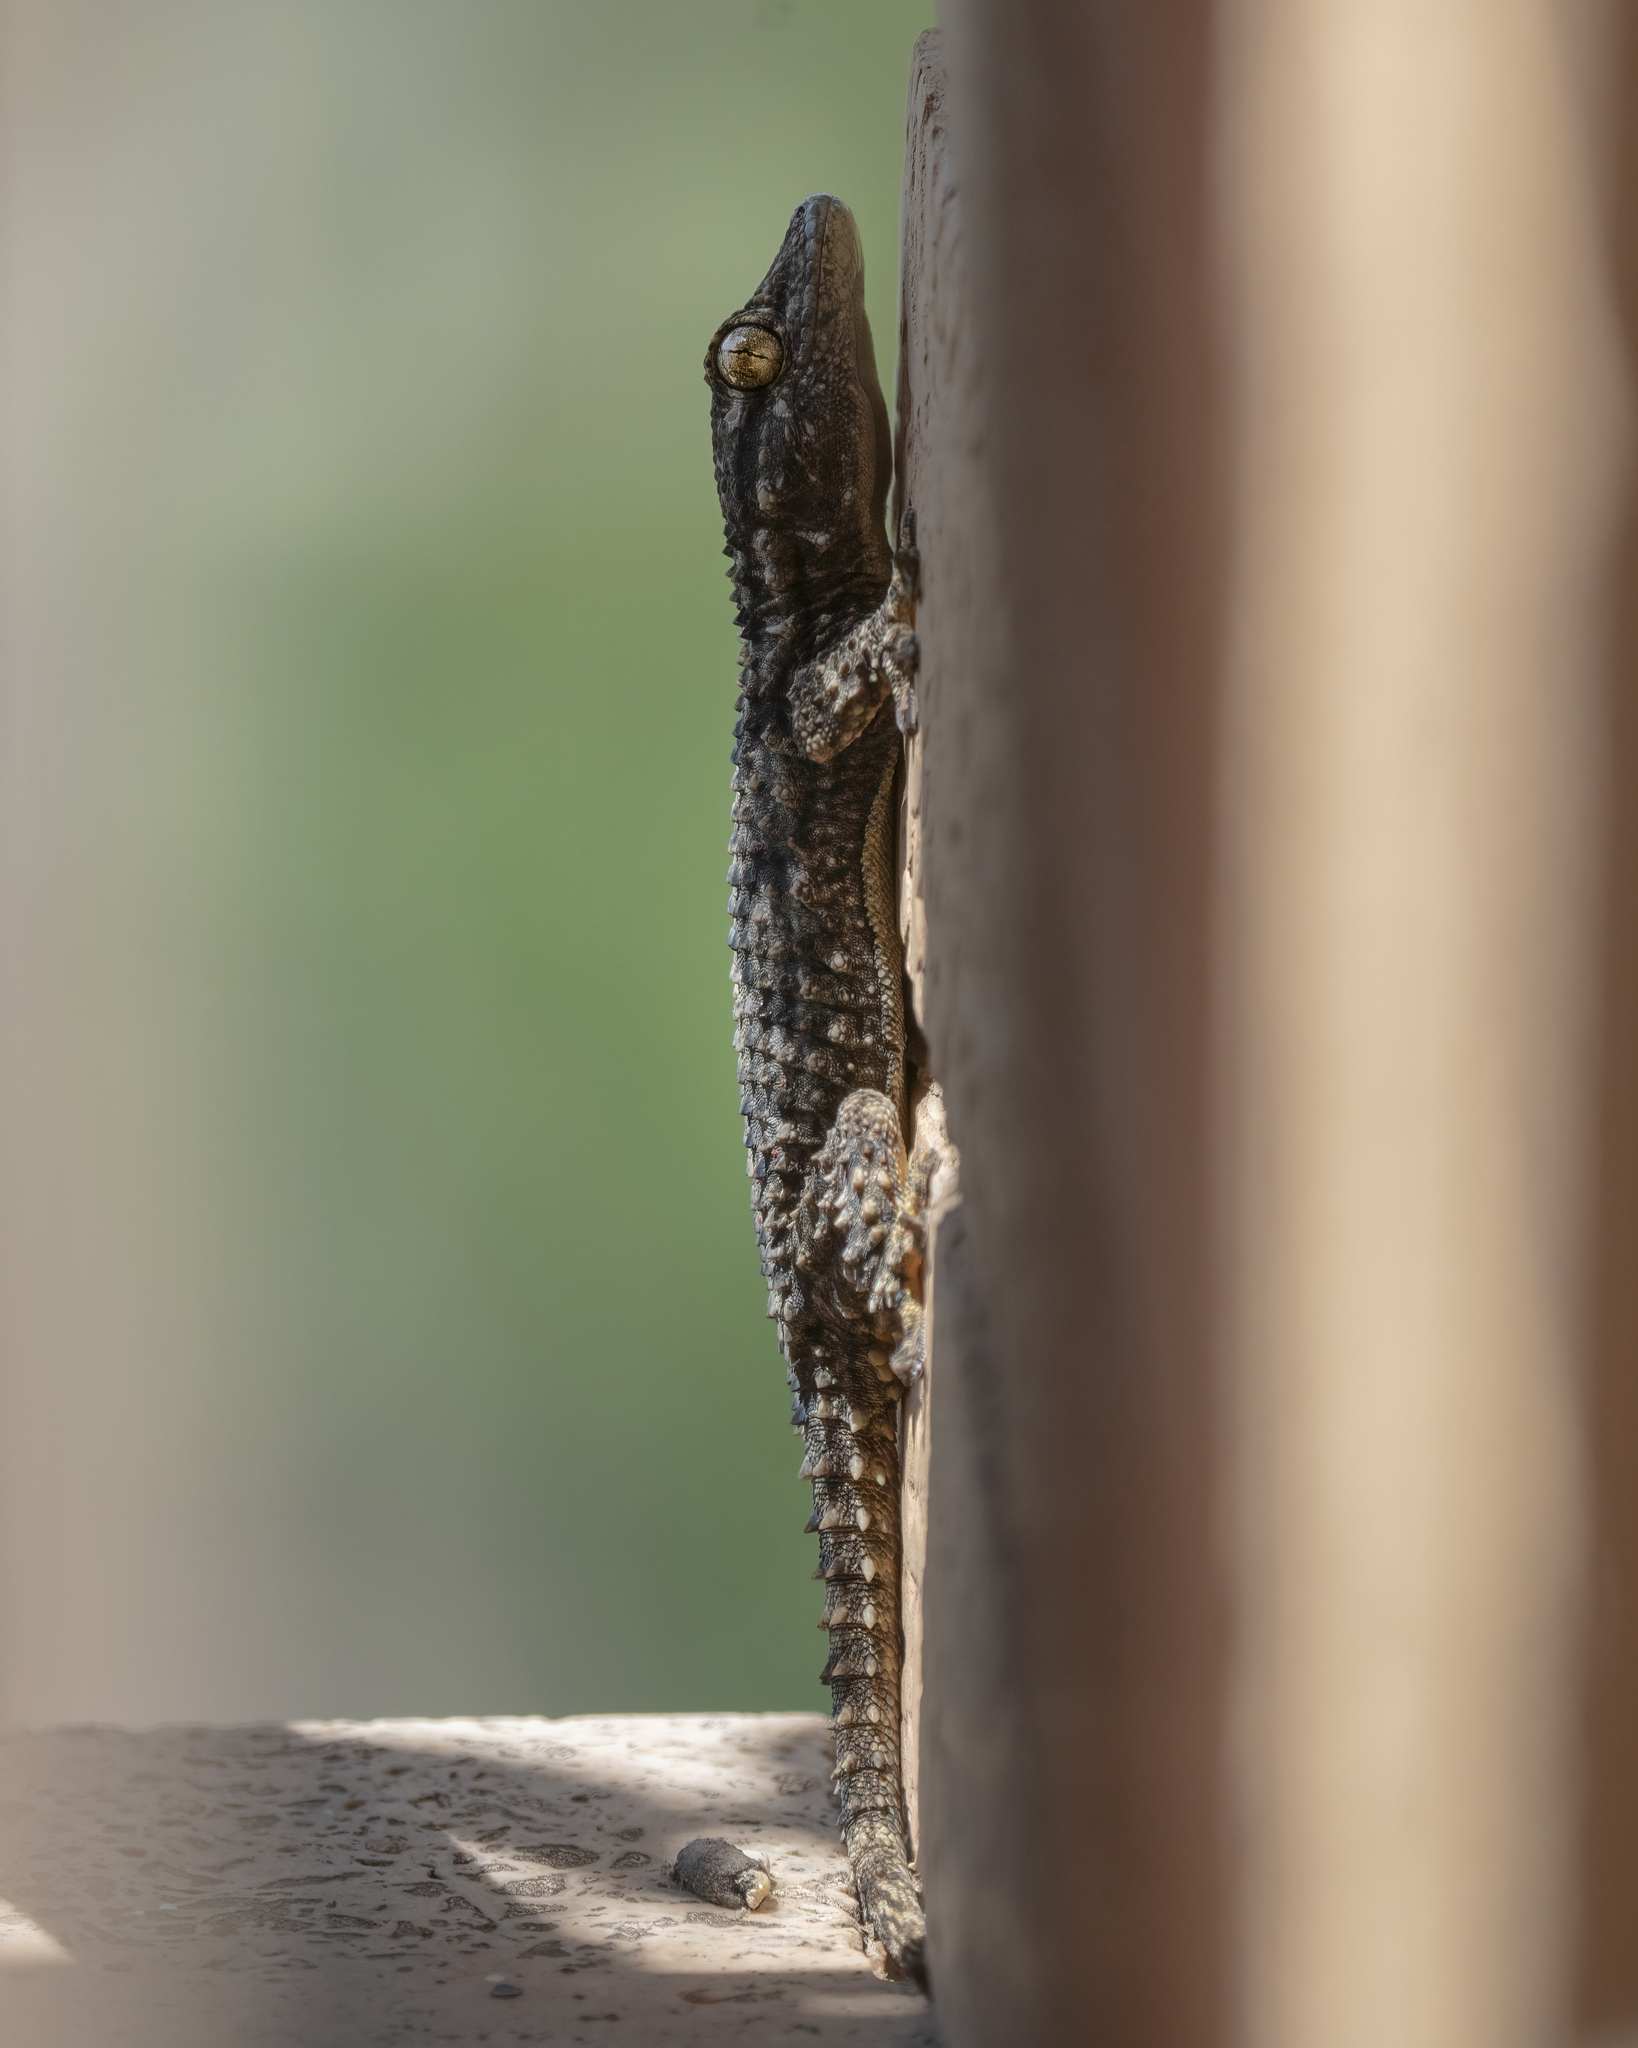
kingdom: Animalia
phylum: Chordata
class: Squamata
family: Phyllodactylidae
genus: Tarentola
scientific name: Tarentola mauritanica
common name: Moorish gecko
